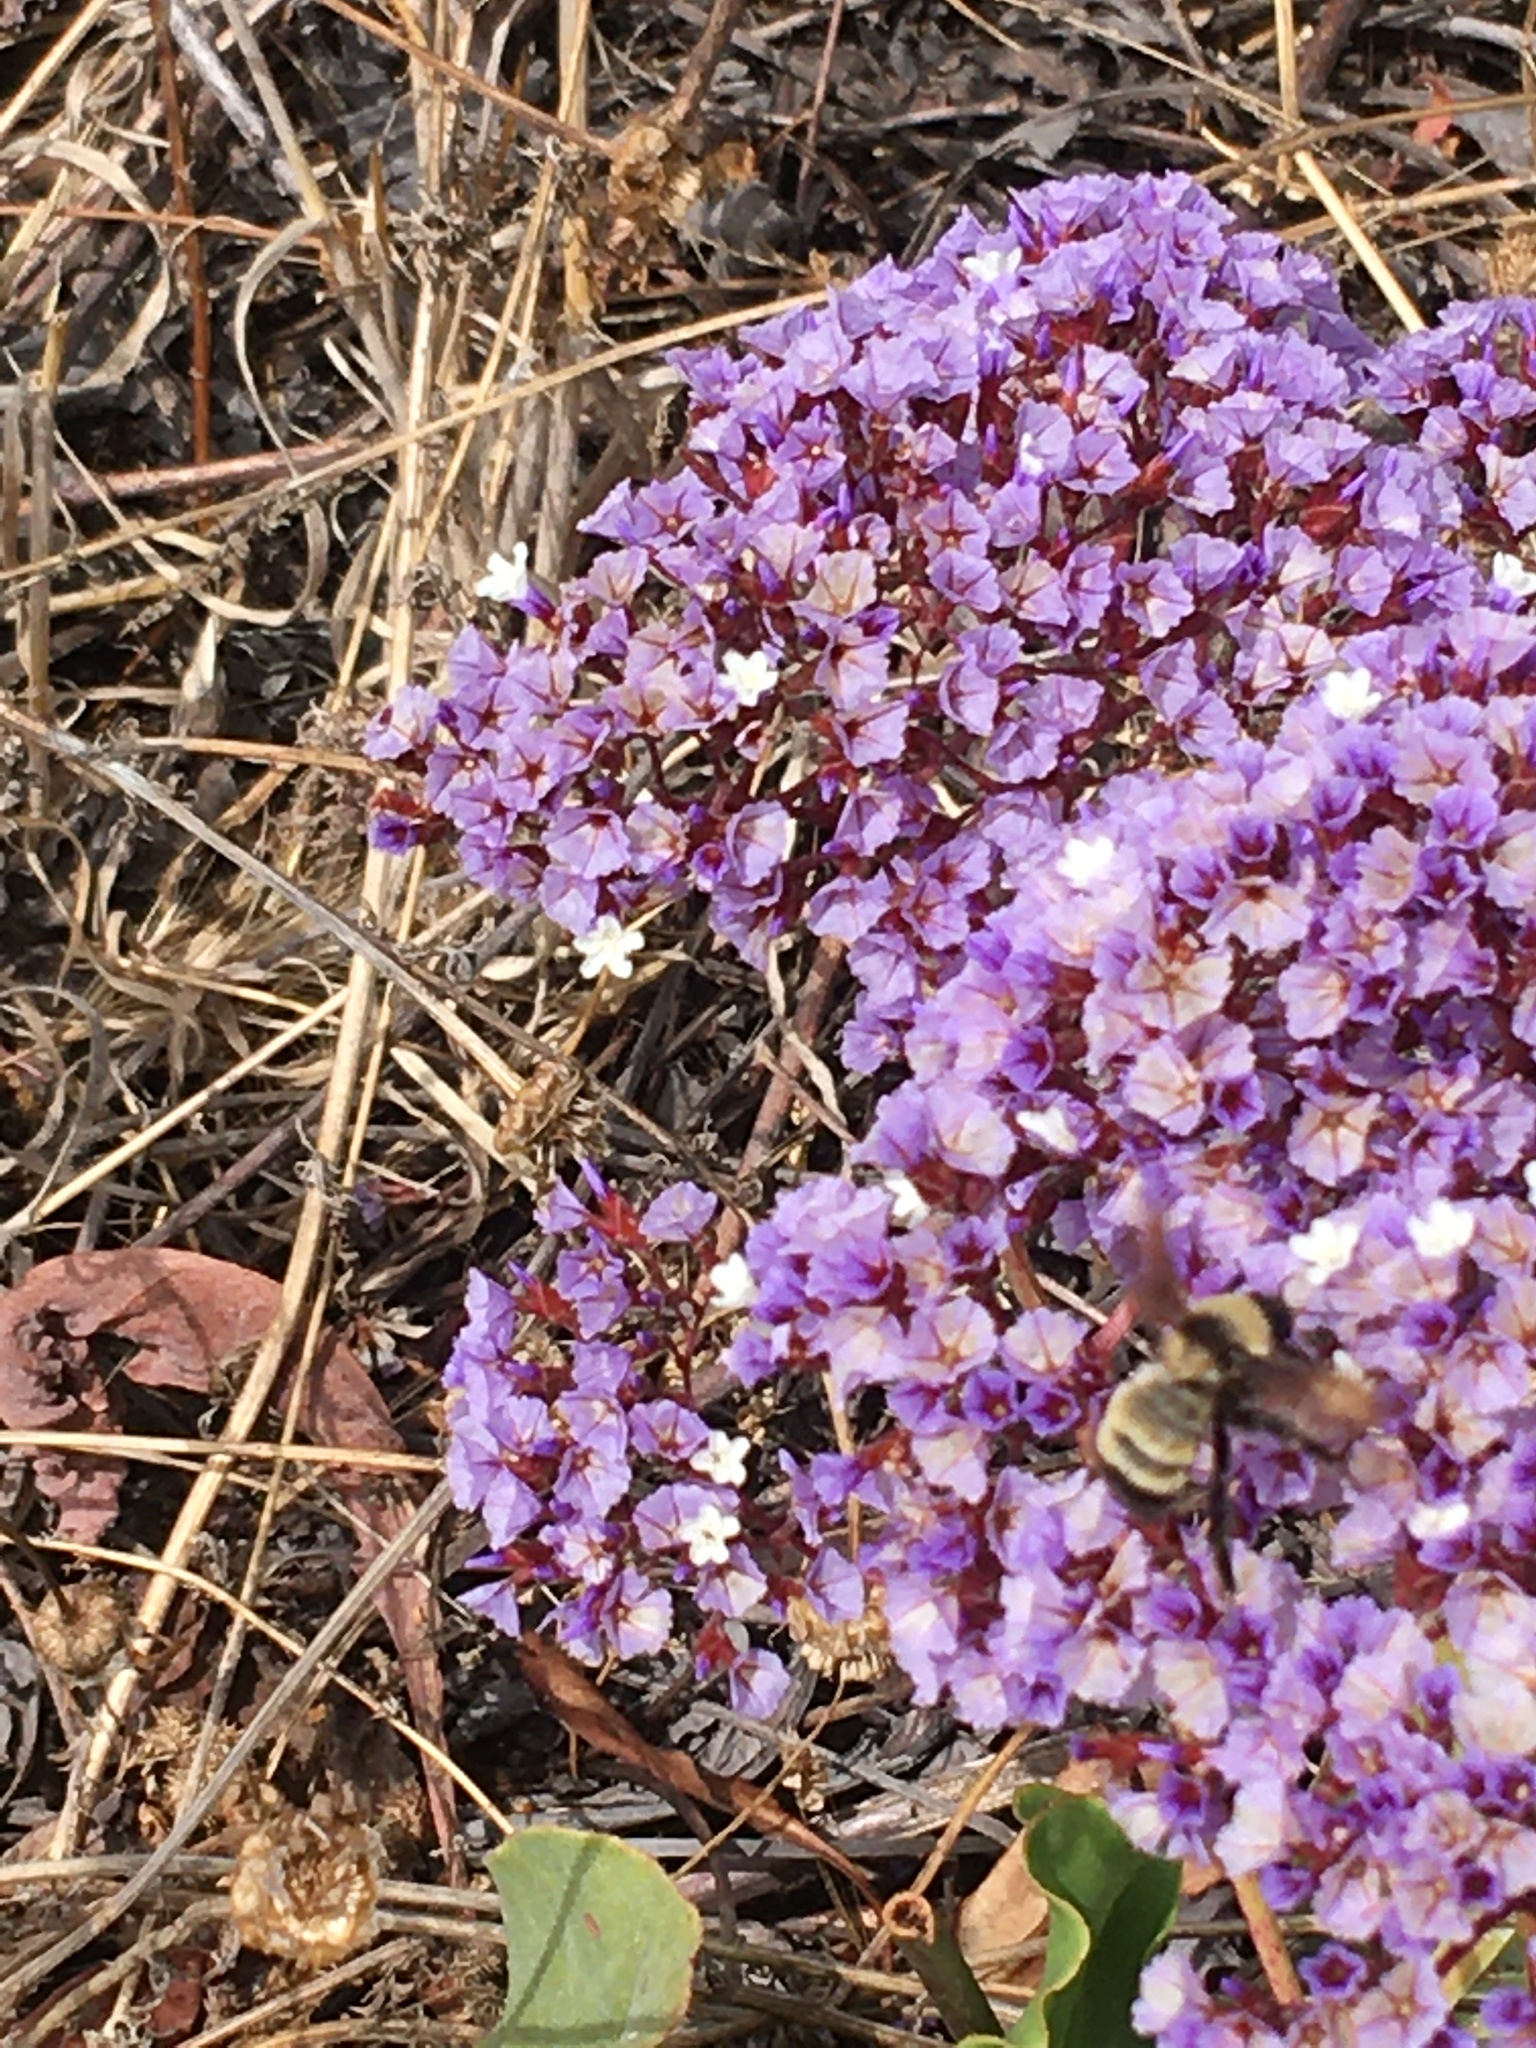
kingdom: Animalia
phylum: Arthropoda
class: Insecta
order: Hymenoptera
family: Apidae
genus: Bombus
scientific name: Bombus sonorus
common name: Sonoran bumble bee
